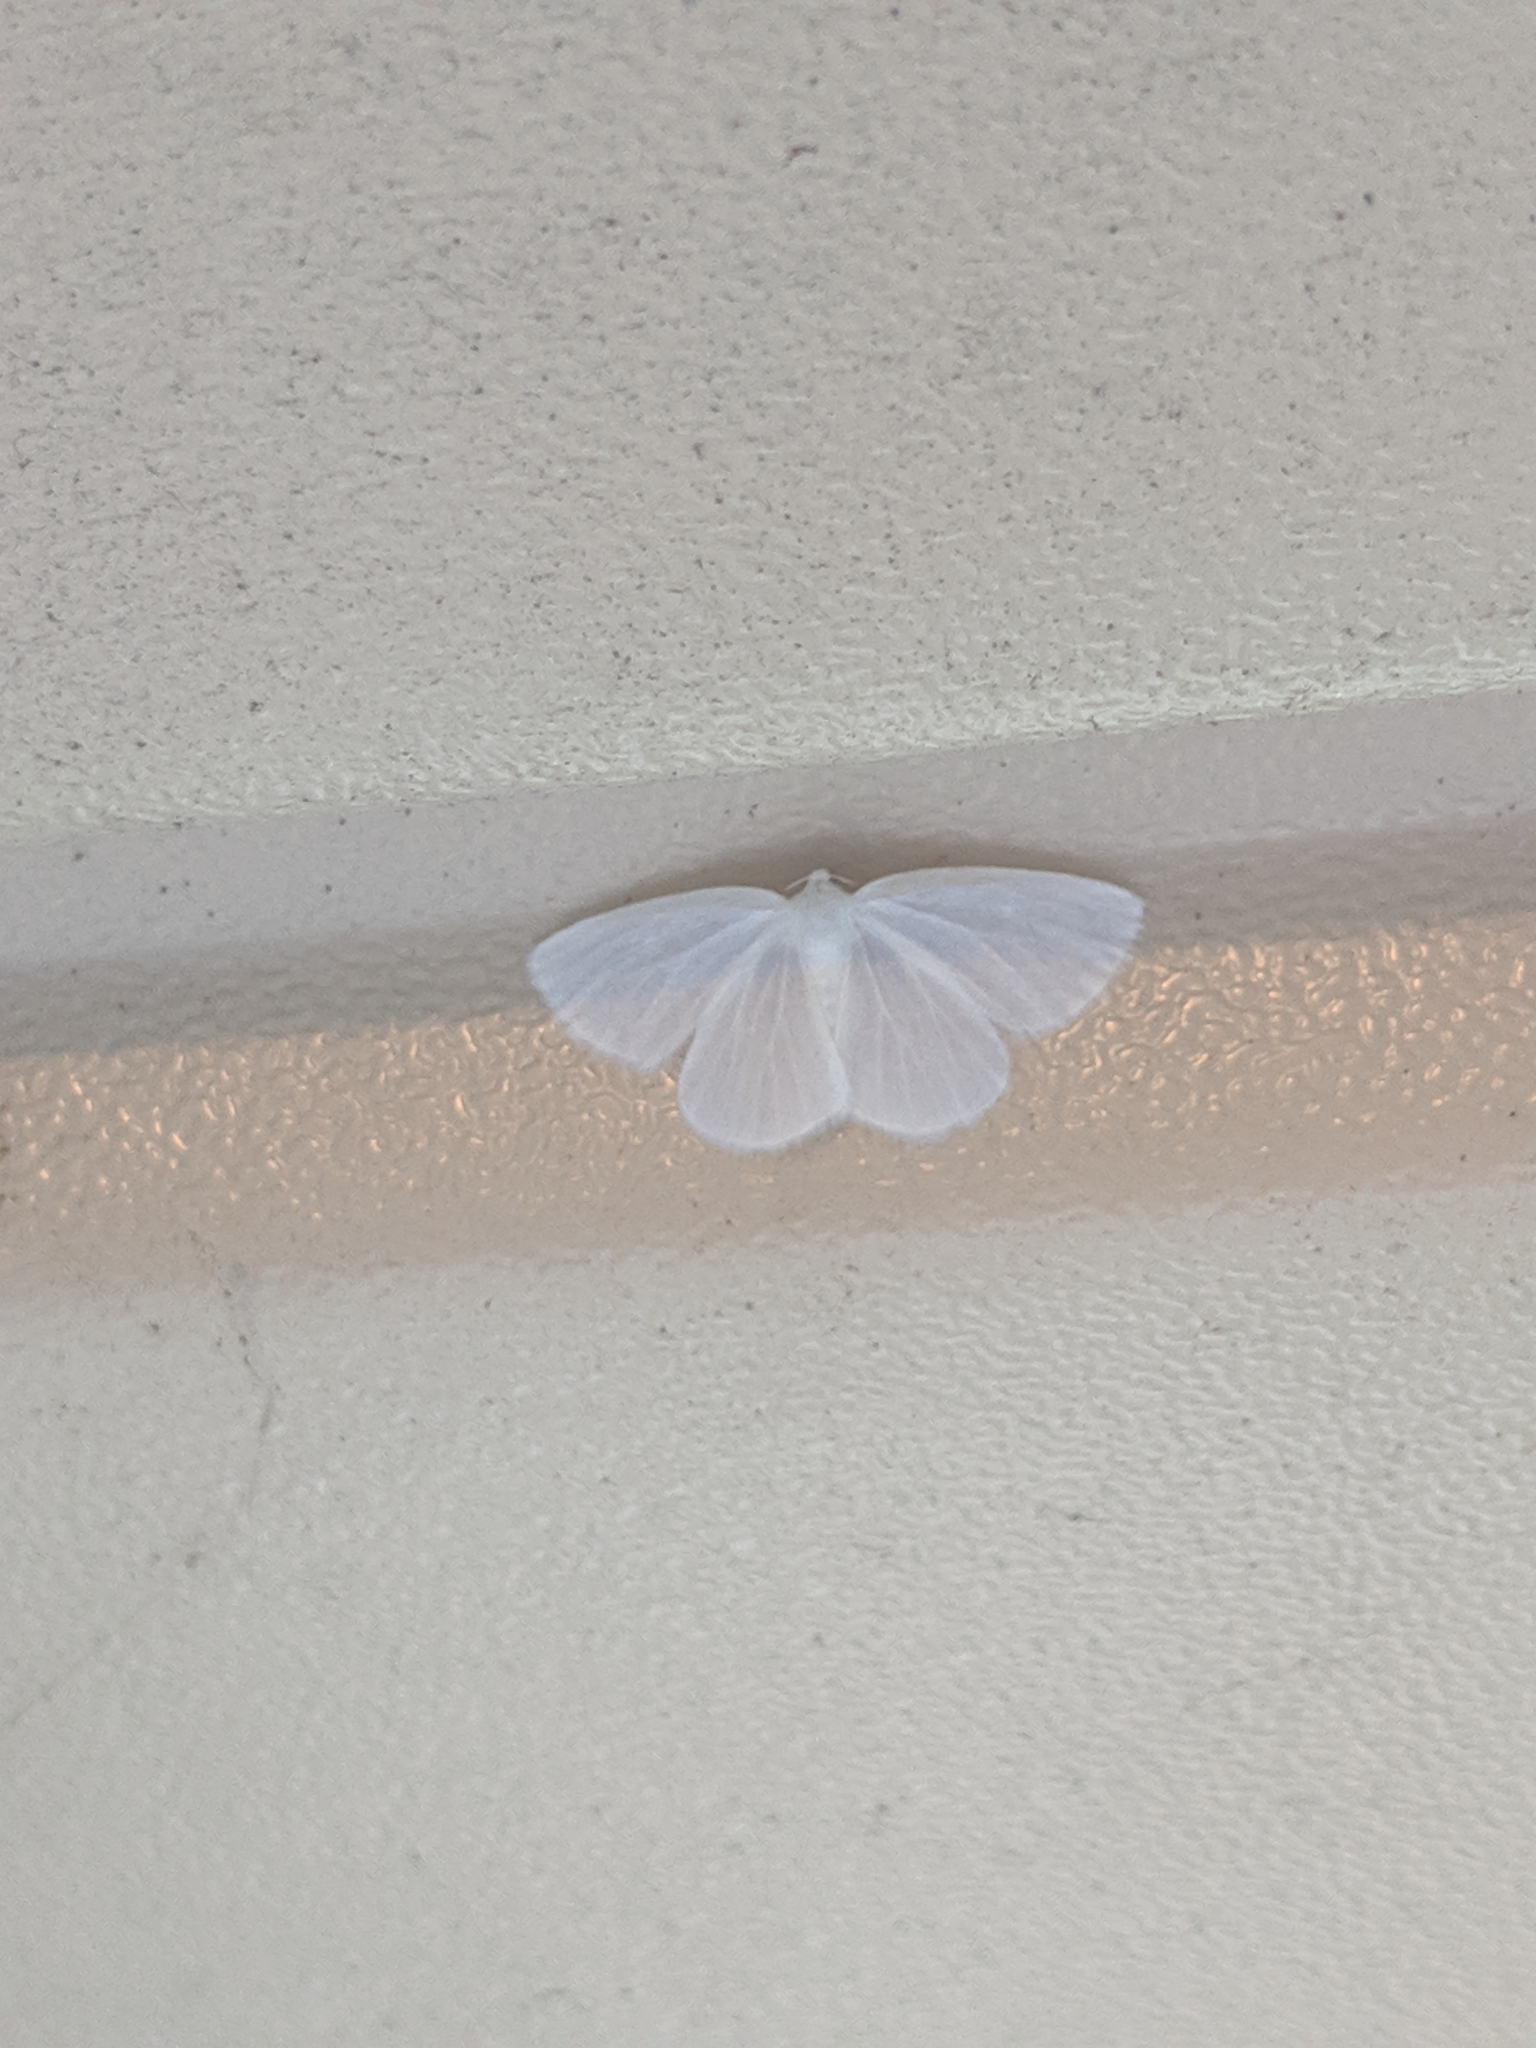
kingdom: Animalia
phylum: Arthropoda
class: Insecta
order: Lepidoptera
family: Geometridae
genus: Lomographa
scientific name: Lomographa vestaliata
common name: White spring moth
